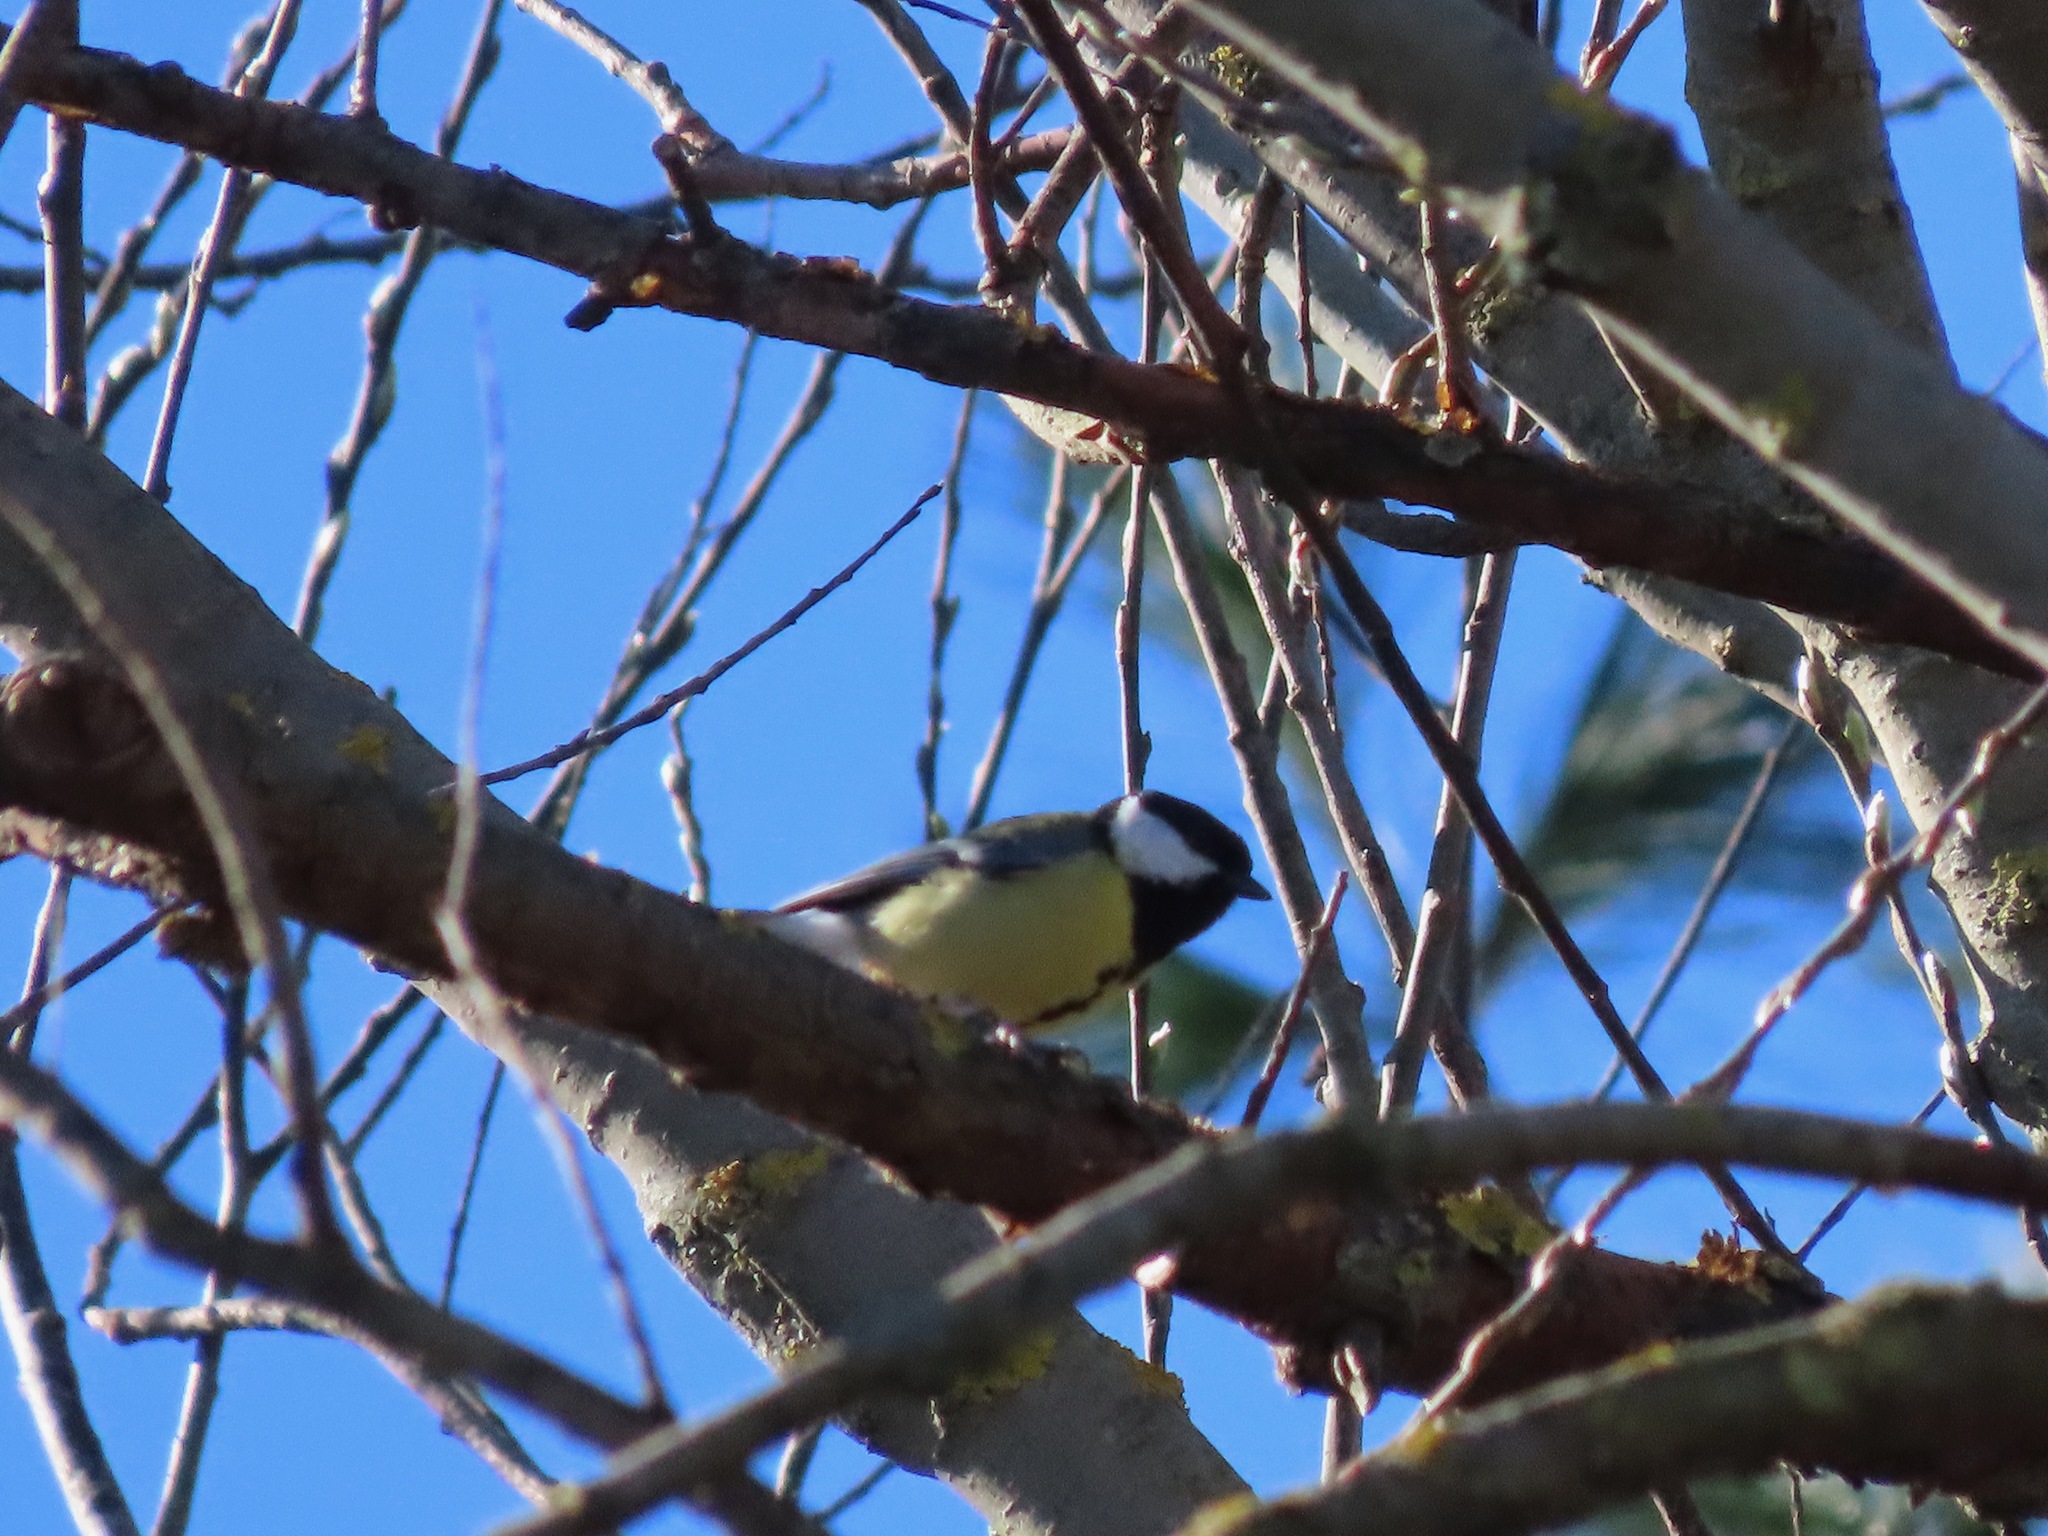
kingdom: Animalia
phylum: Chordata
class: Aves
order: Passeriformes
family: Paridae
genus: Parus
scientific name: Parus major
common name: Great tit
